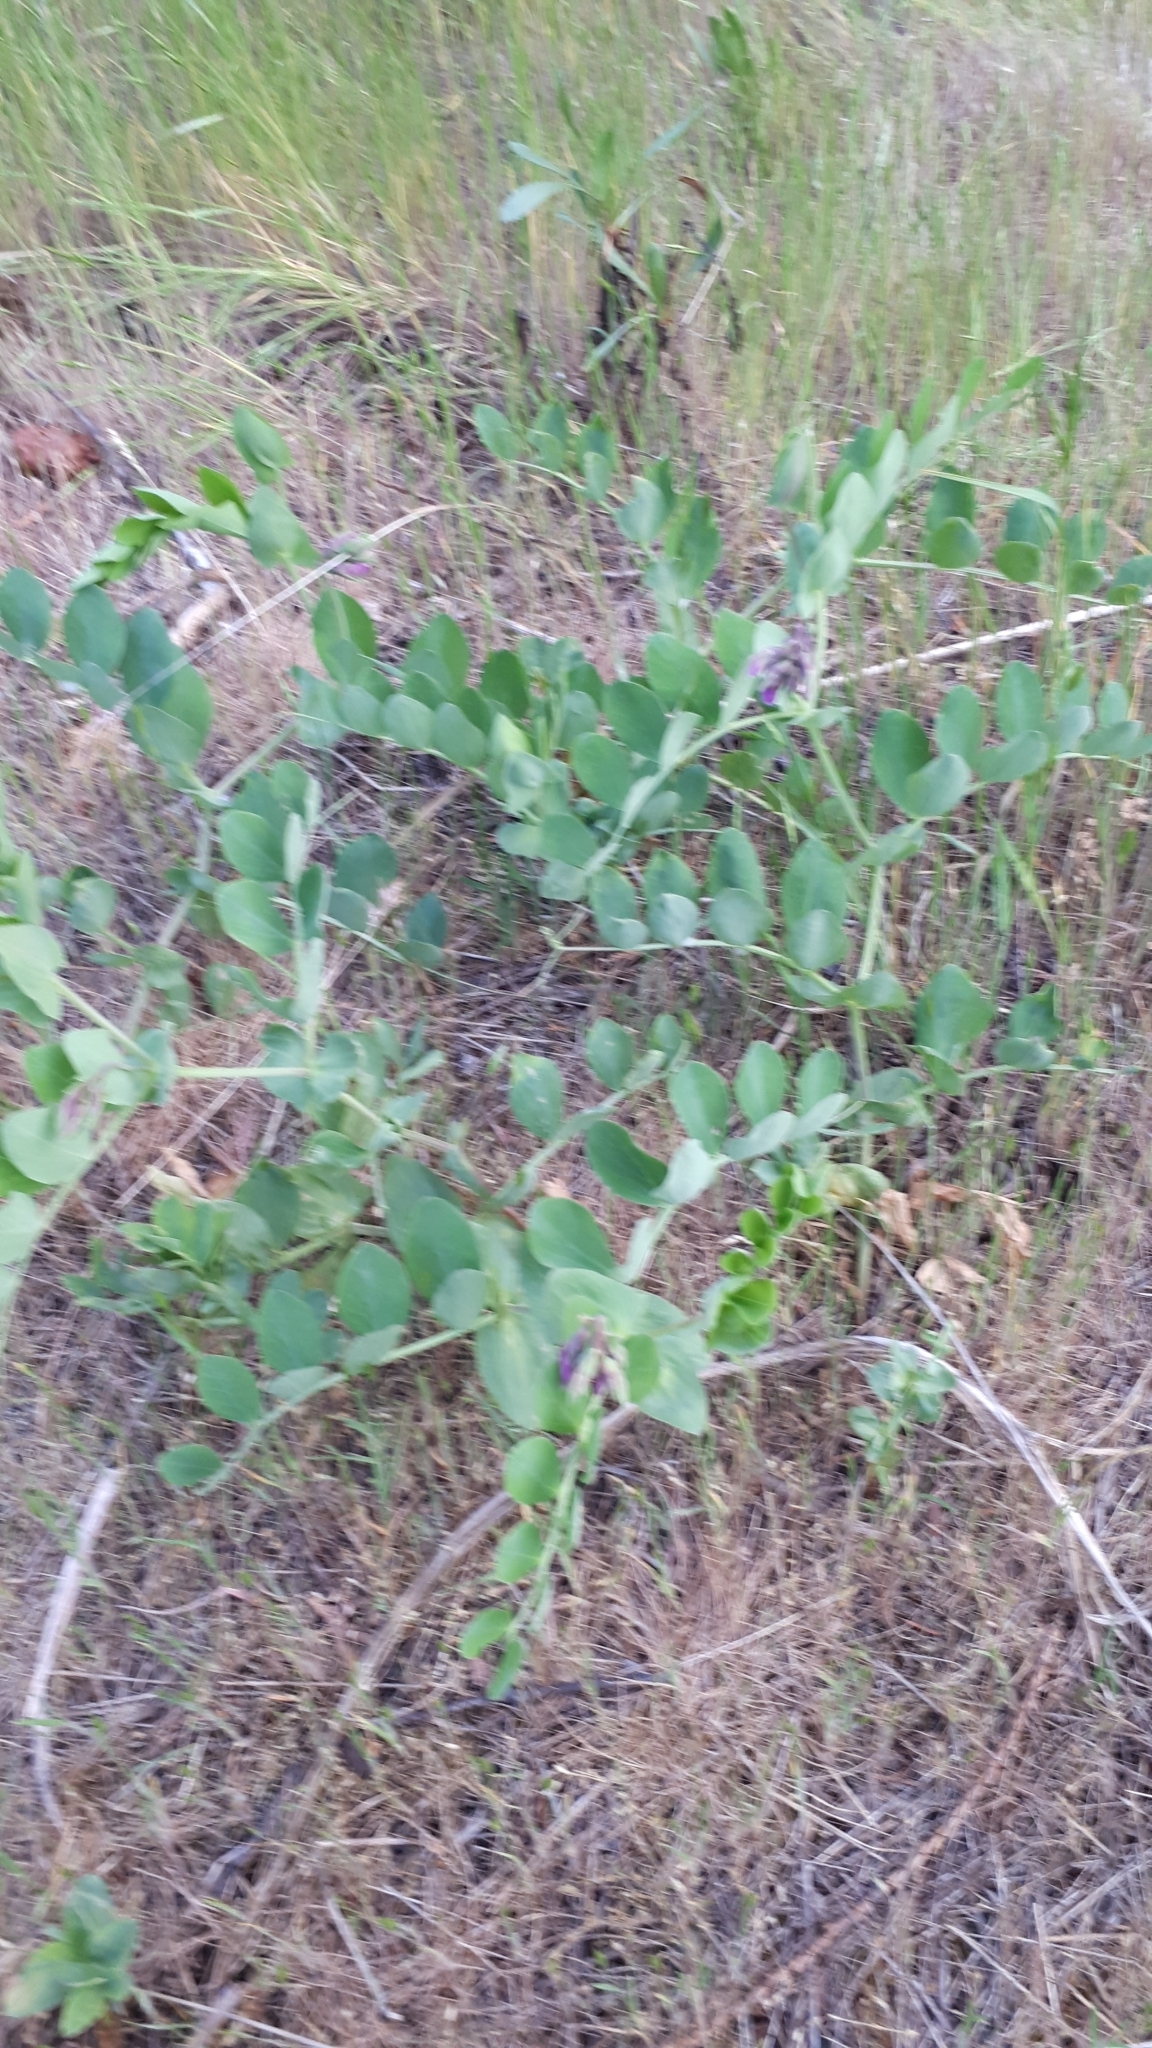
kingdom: Plantae
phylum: Tracheophyta
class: Magnoliopsida
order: Fabales
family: Fabaceae
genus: Lathyrus
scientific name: Lathyrus japonicus
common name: Sea pea
